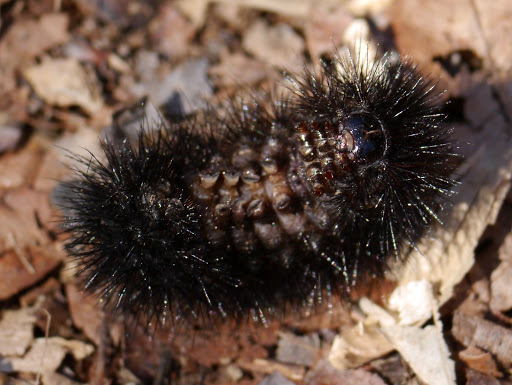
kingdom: Animalia
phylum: Arthropoda
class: Insecta
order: Lepidoptera
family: Erebidae
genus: Hypercompe
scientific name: Hypercompe scribonia
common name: Giant leopard moth
